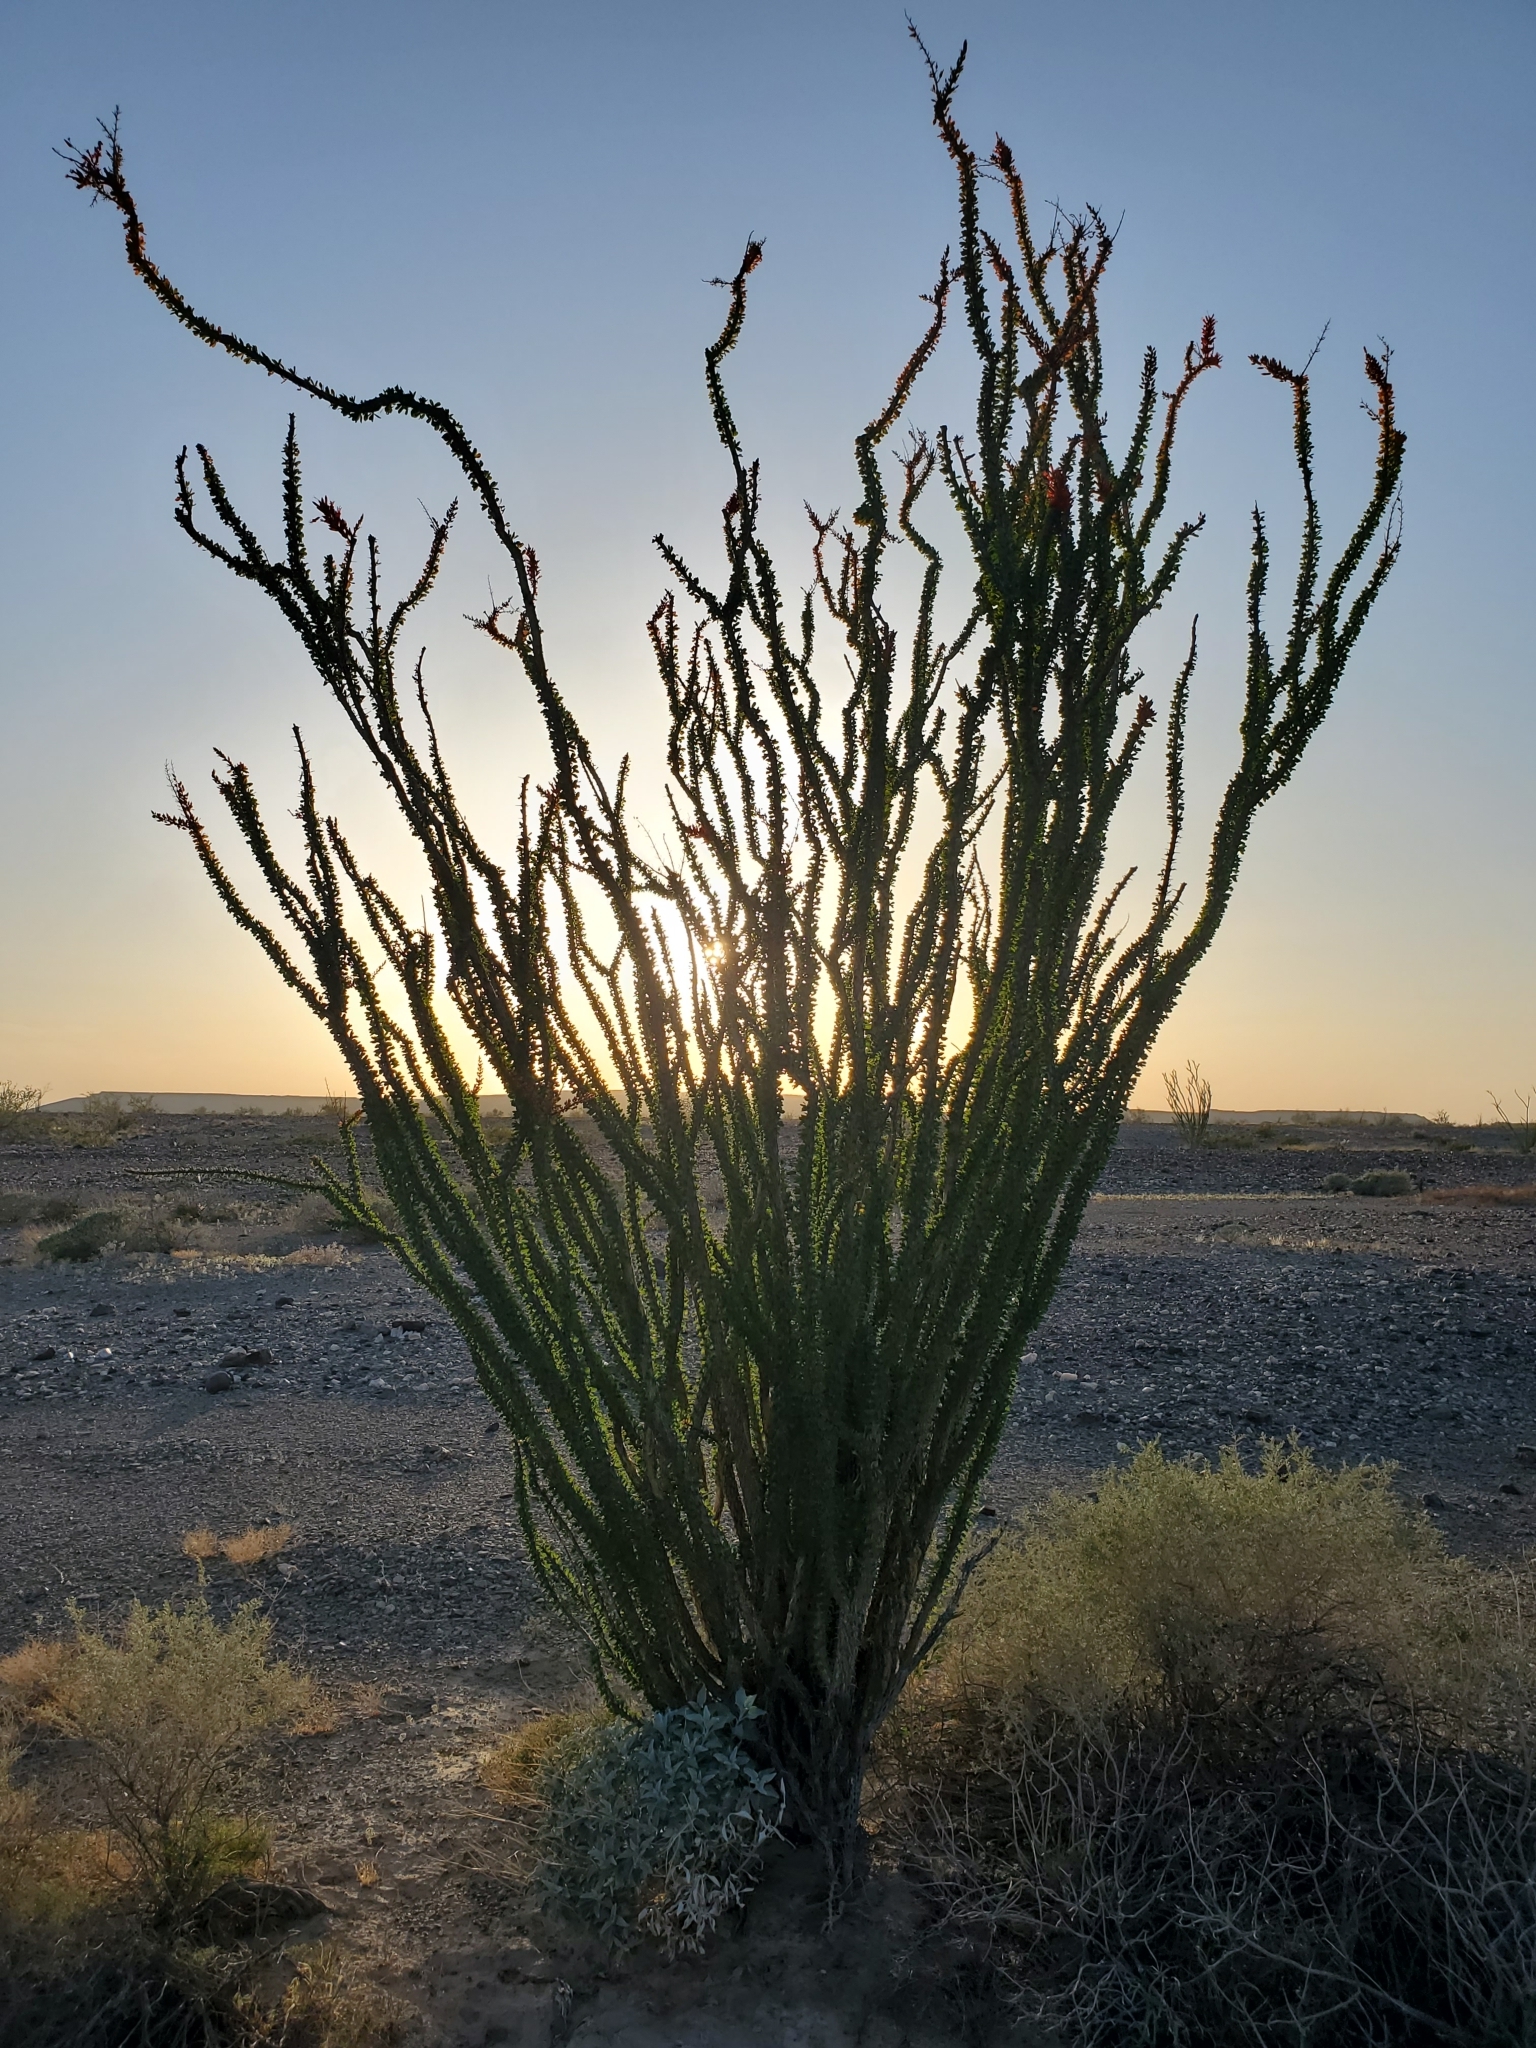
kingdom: Plantae
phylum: Tracheophyta
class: Magnoliopsida
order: Ericales
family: Fouquieriaceae
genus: Fouquieria
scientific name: Fouquieria splendens
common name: Vine-cactus
